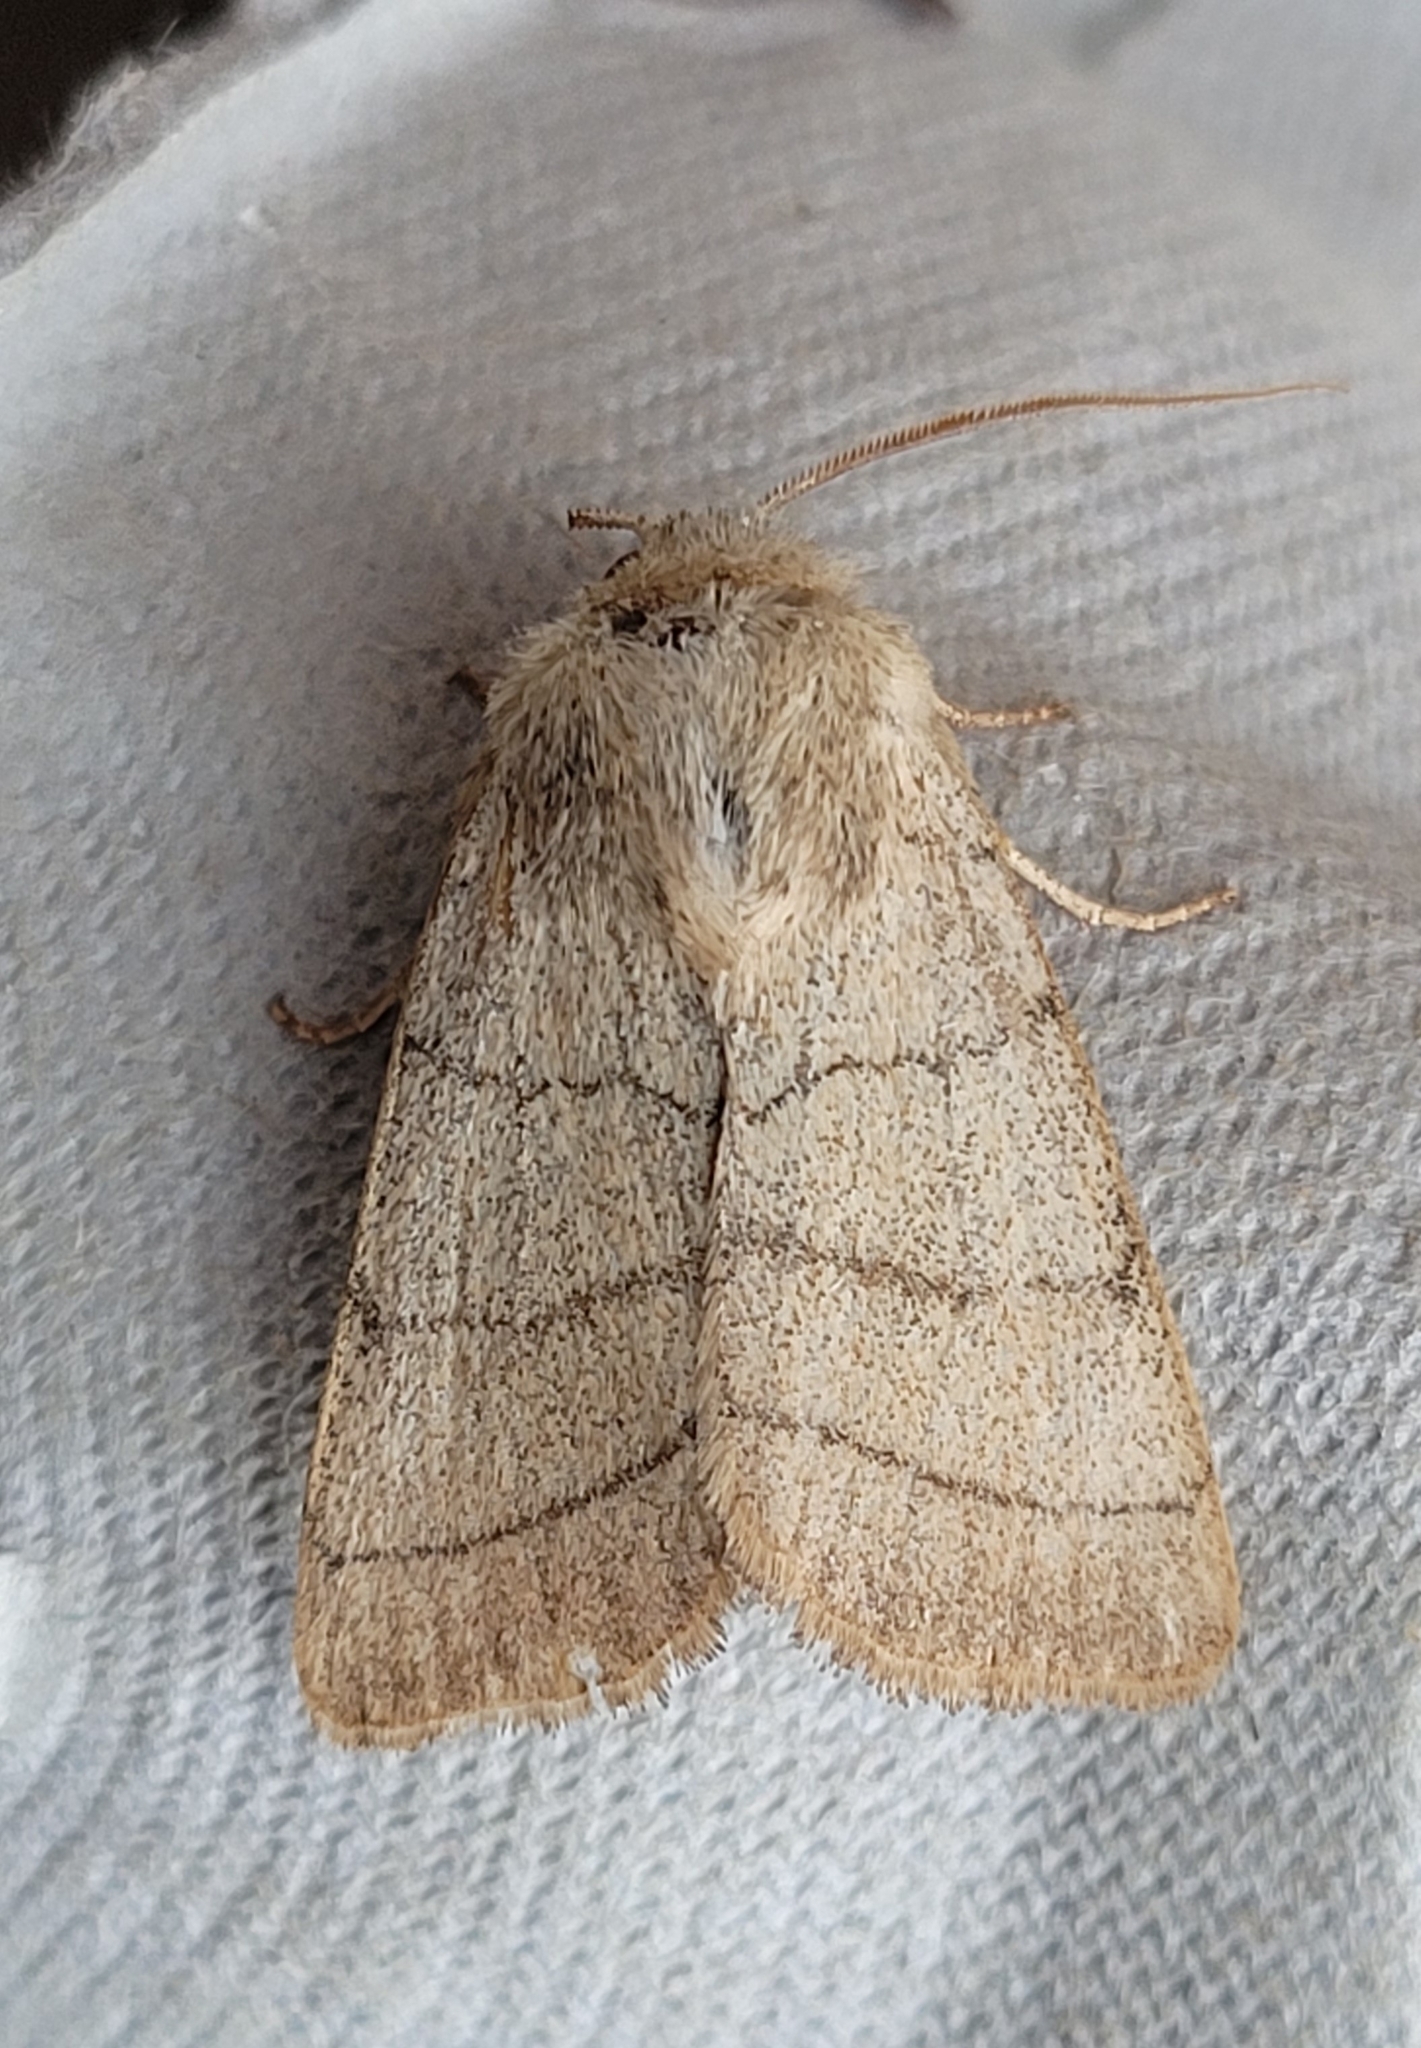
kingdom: Animalia
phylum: Arthropoda
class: Insecta
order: Lepidoptera
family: Noctuidae
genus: Charanyca
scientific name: Charanyca trigrammica
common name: Treble lines
